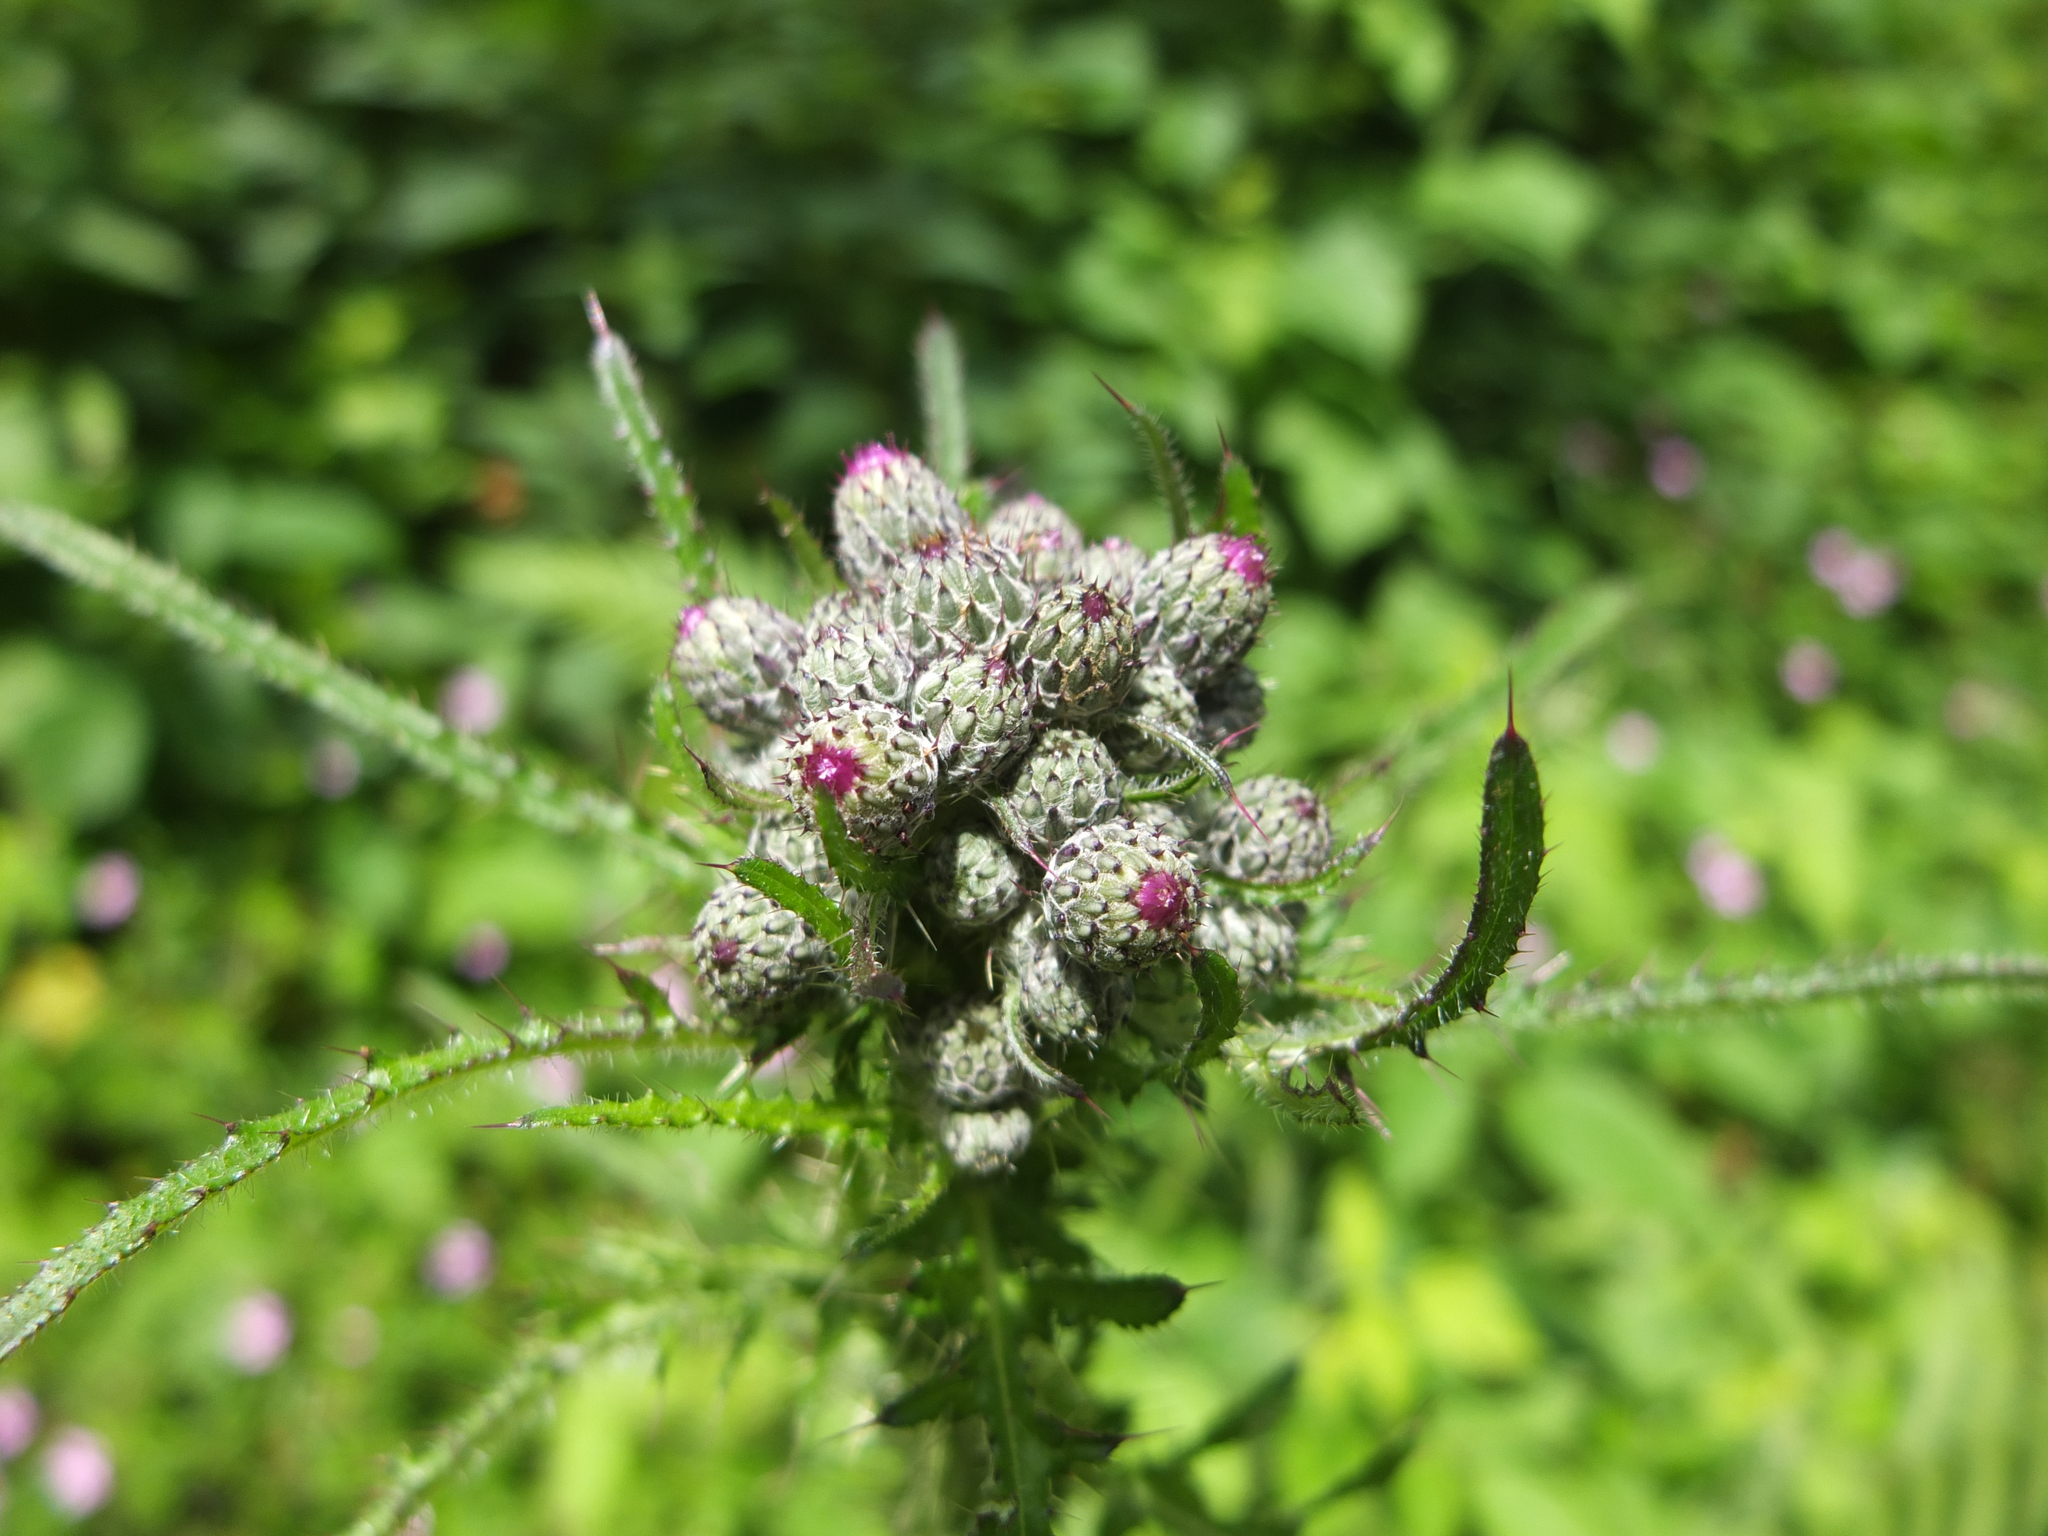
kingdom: Plantae
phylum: Tracheophyta
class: Magnoliopsida
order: Asterales
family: Asteraceae
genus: Cirsium
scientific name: Cirsium palustre
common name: Marsh thistle
